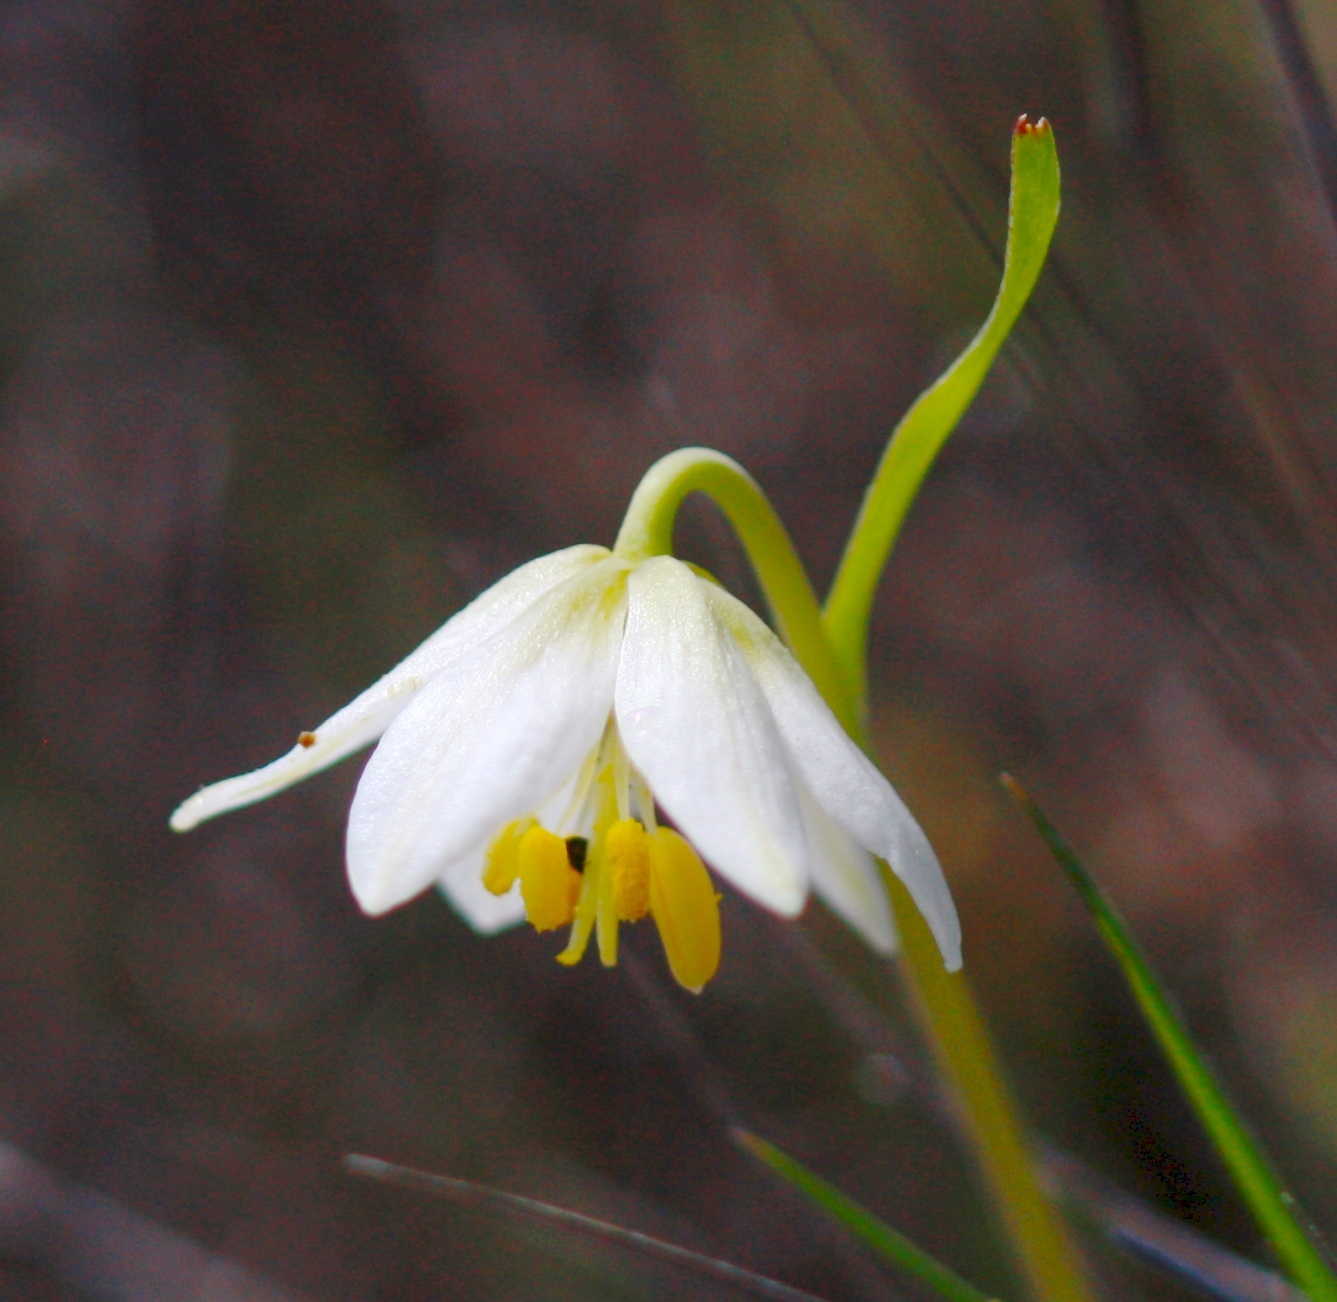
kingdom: Plantae
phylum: Tracheophyta
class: Liliopsida
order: Liliales
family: Liliaceae
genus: Fritillaria
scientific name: Fritillaria liliacea
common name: Fragrant fritillary
